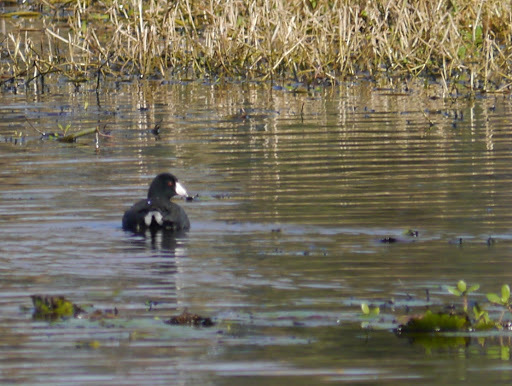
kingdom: Animalia
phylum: Chordata
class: Aves
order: Gruiformes
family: Rallidae
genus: Fulica
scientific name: Fulica americana
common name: American coot
